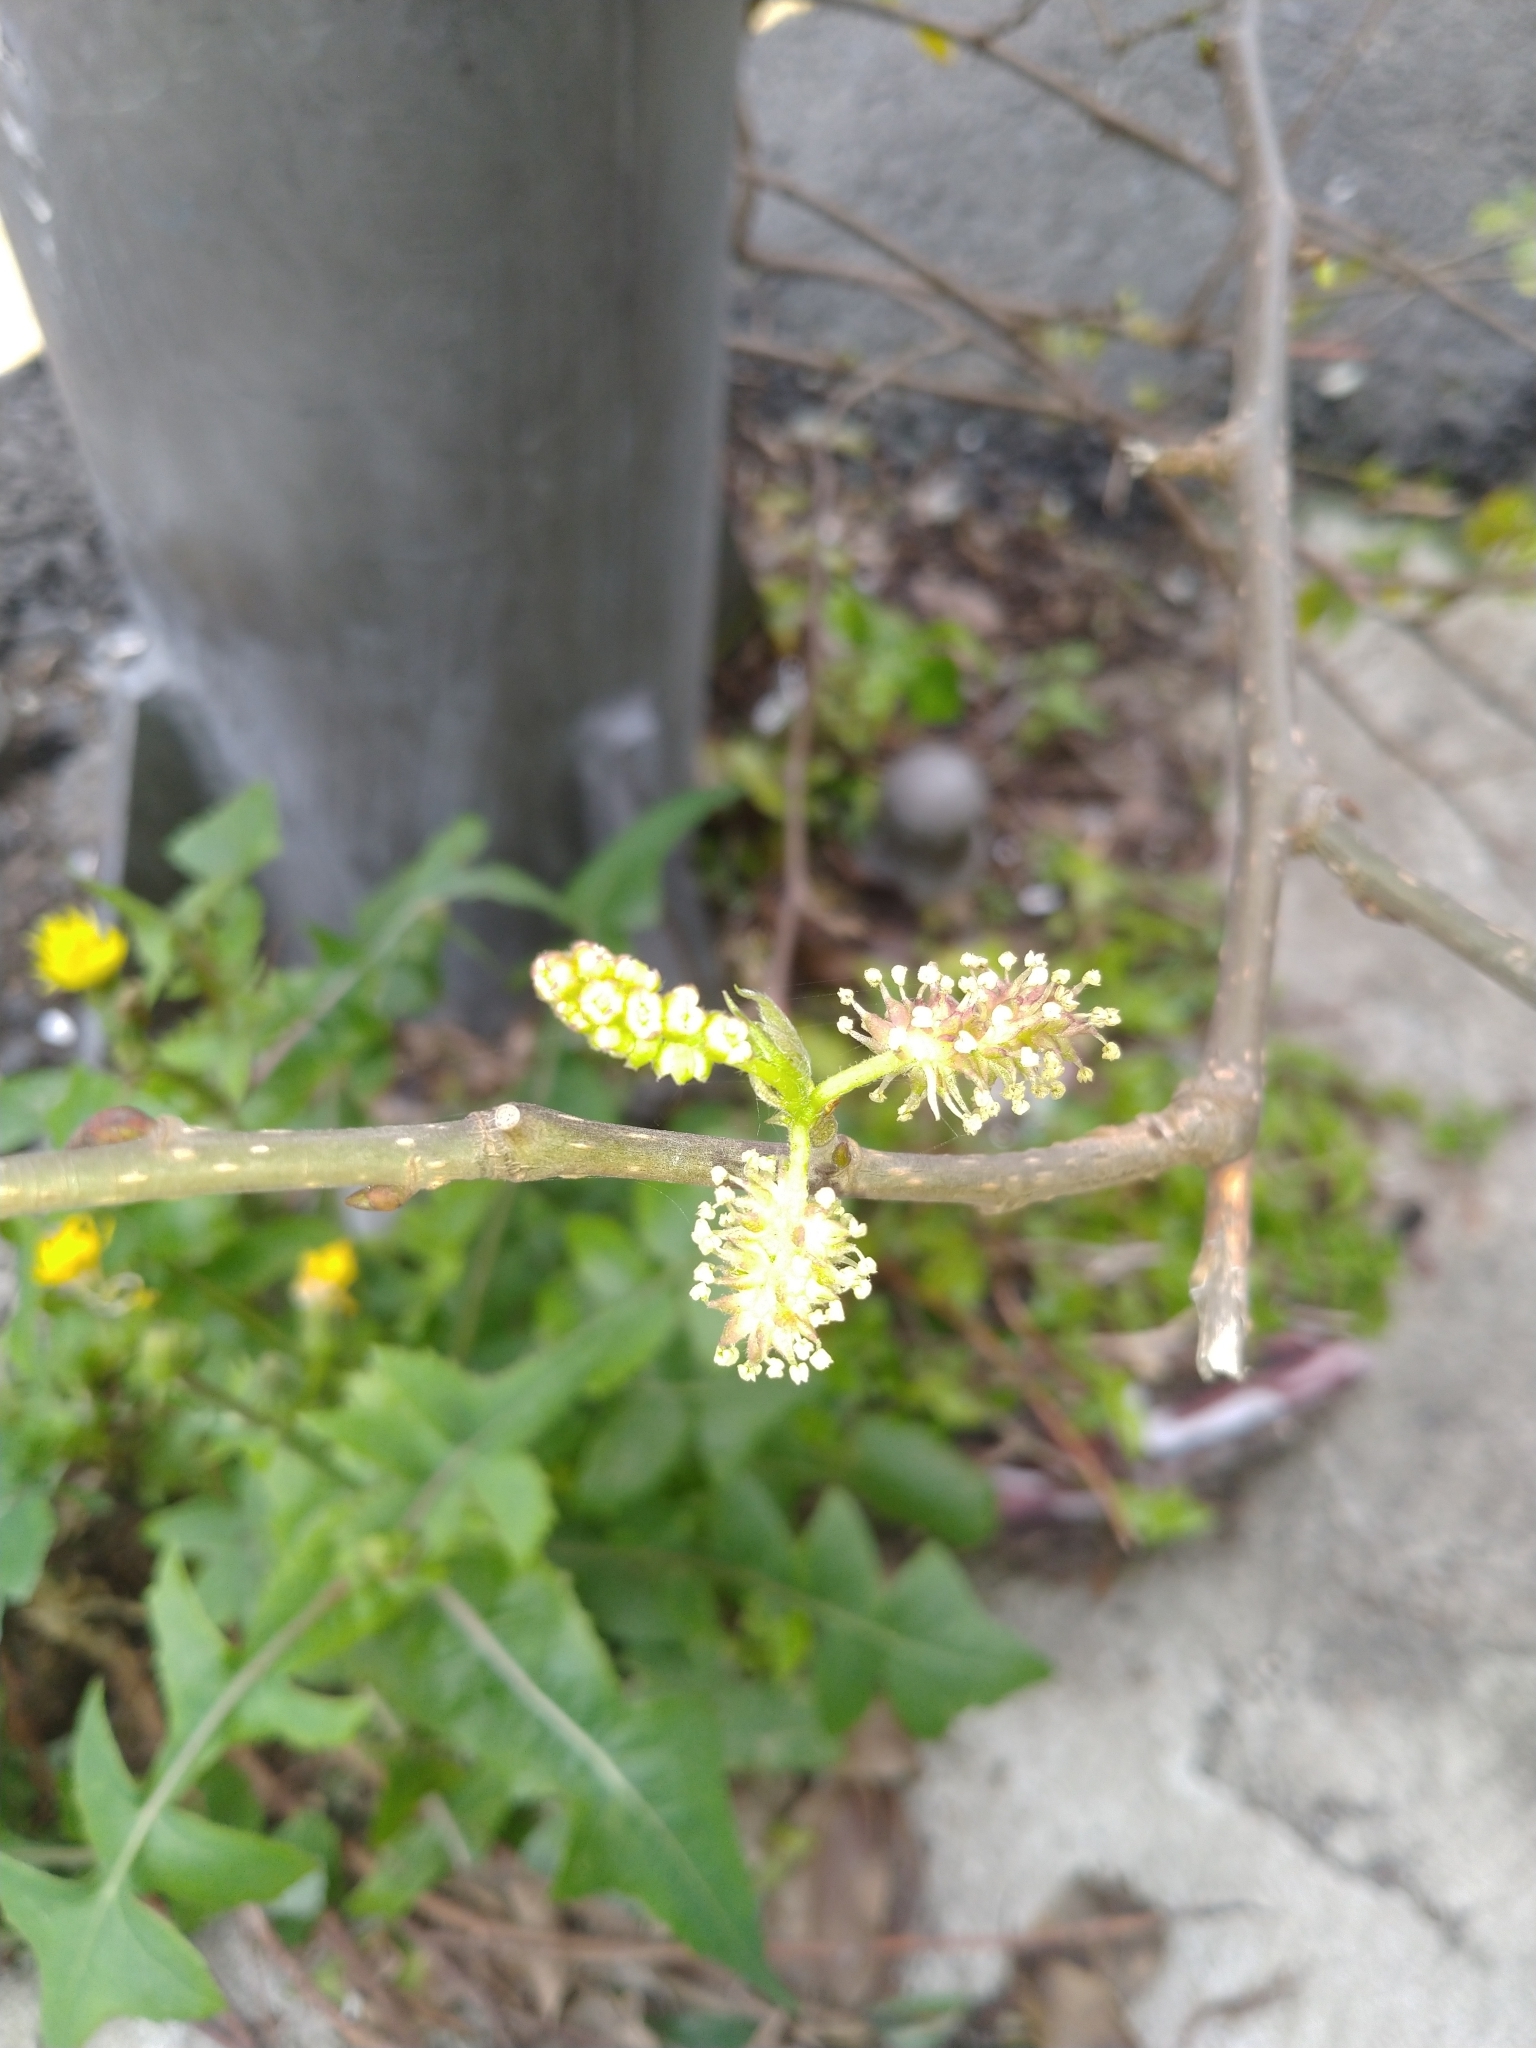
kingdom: Plantae
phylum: Tracheophyta
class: Magnoliopsida
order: Rosales
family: Moraceae
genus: Morus
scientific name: Morus indica
